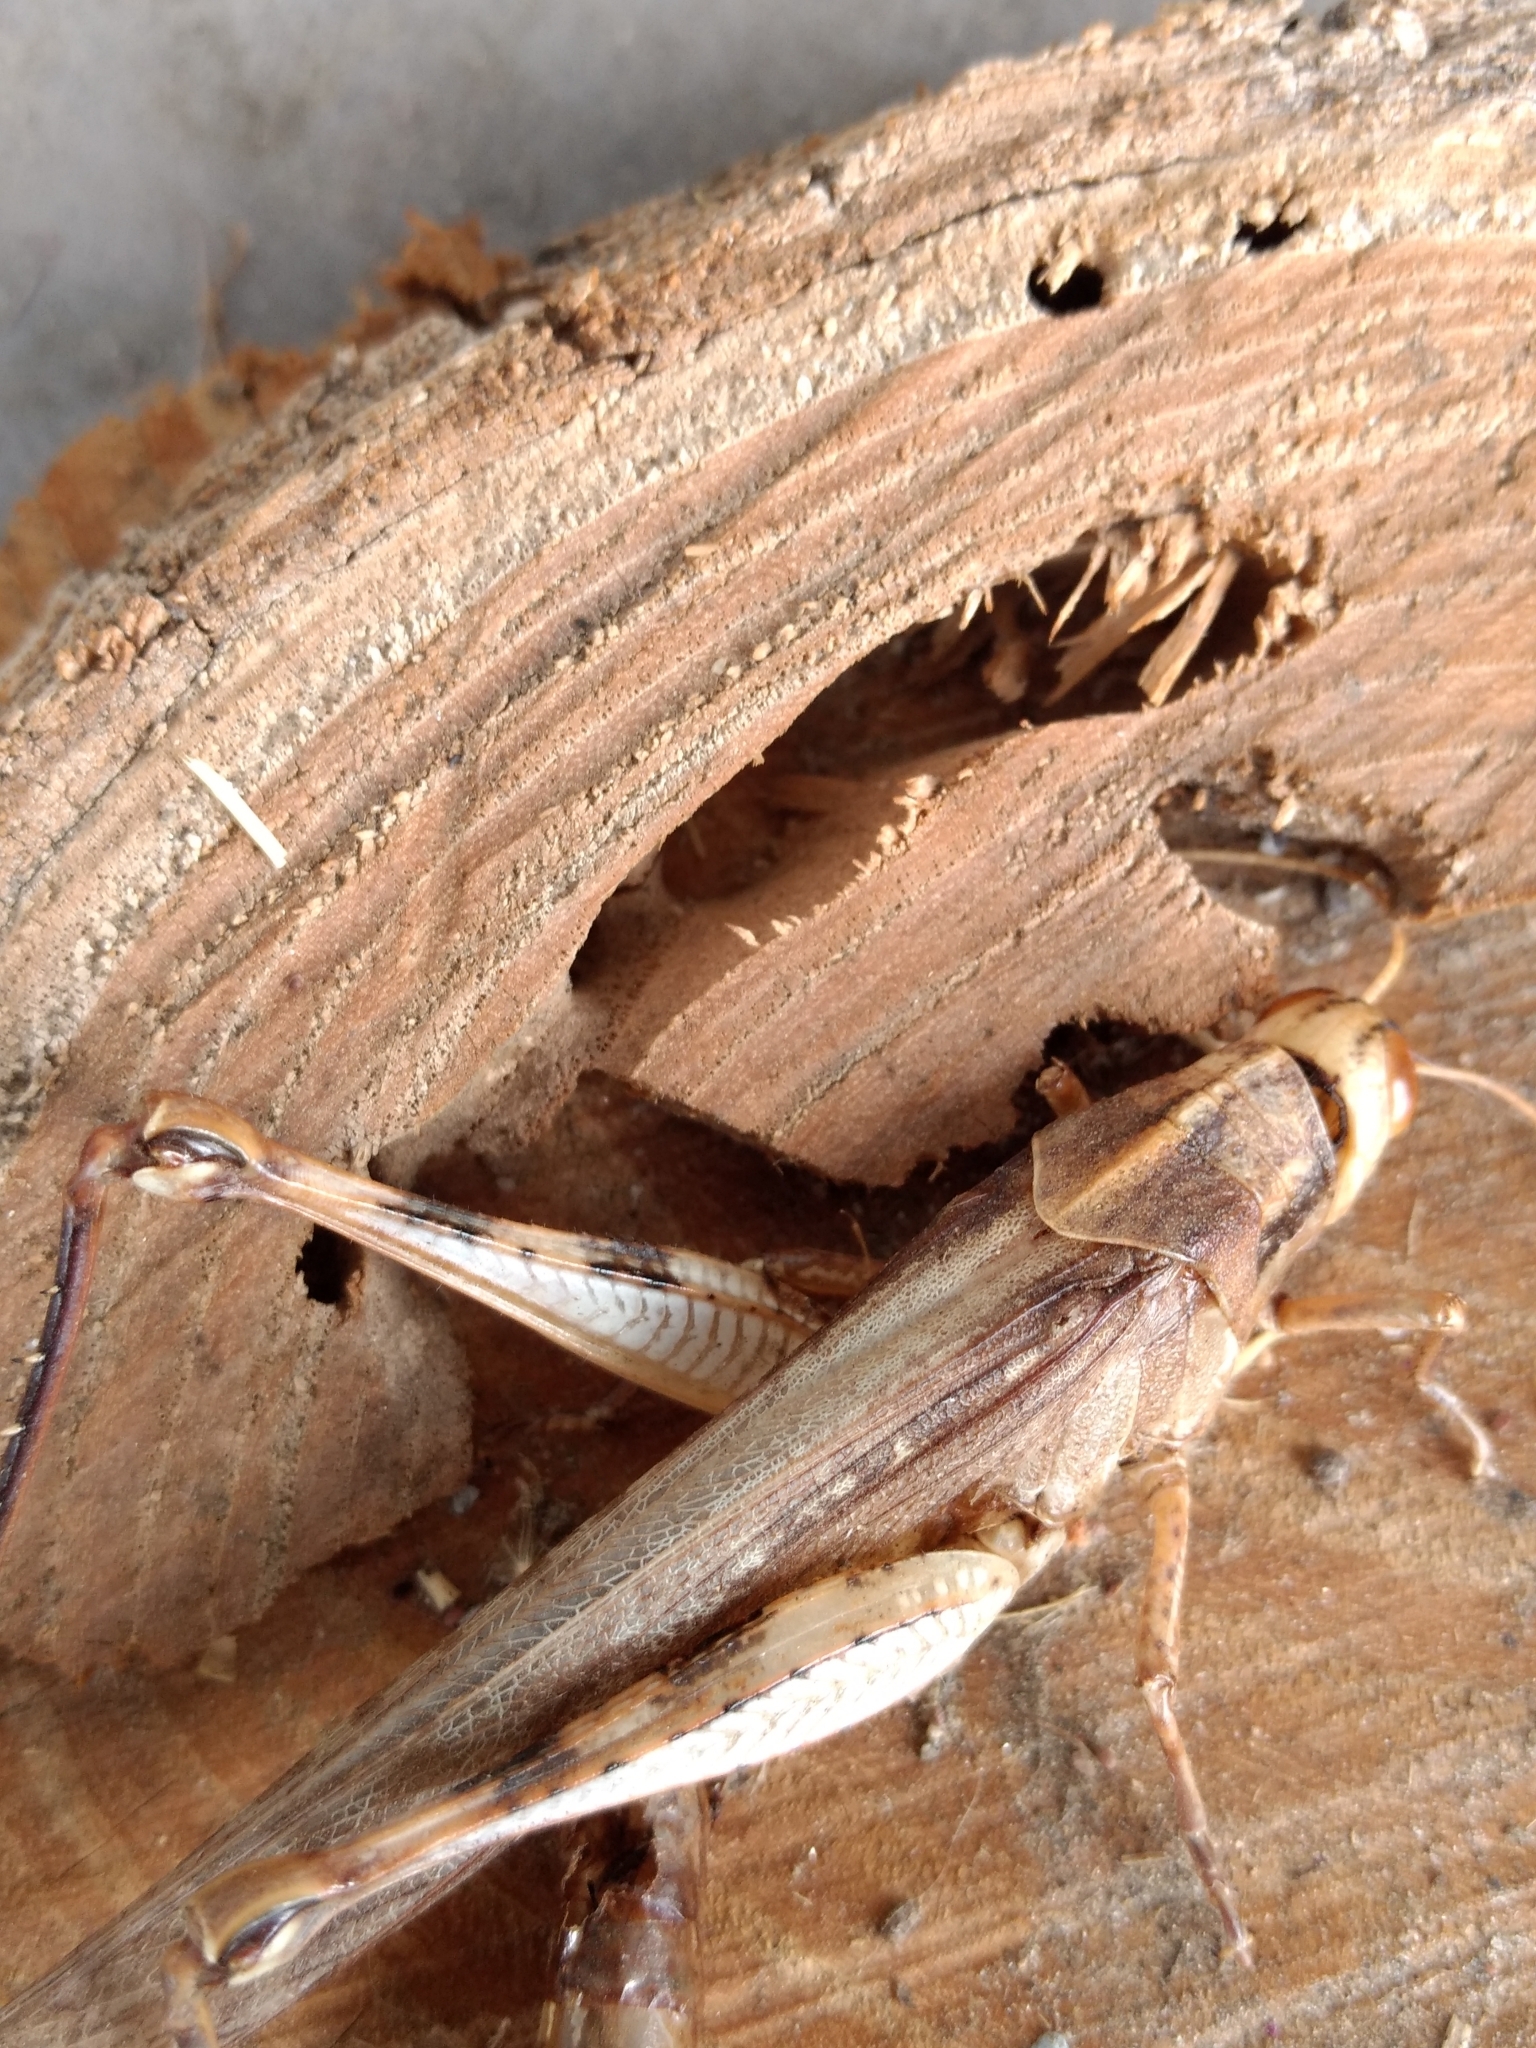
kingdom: Animalia
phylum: Arthropoda
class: Insecta
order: Orthoptera
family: Acrididae
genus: Schistocerca
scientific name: Schistocerca nitens
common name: Vagrant grasshopper
